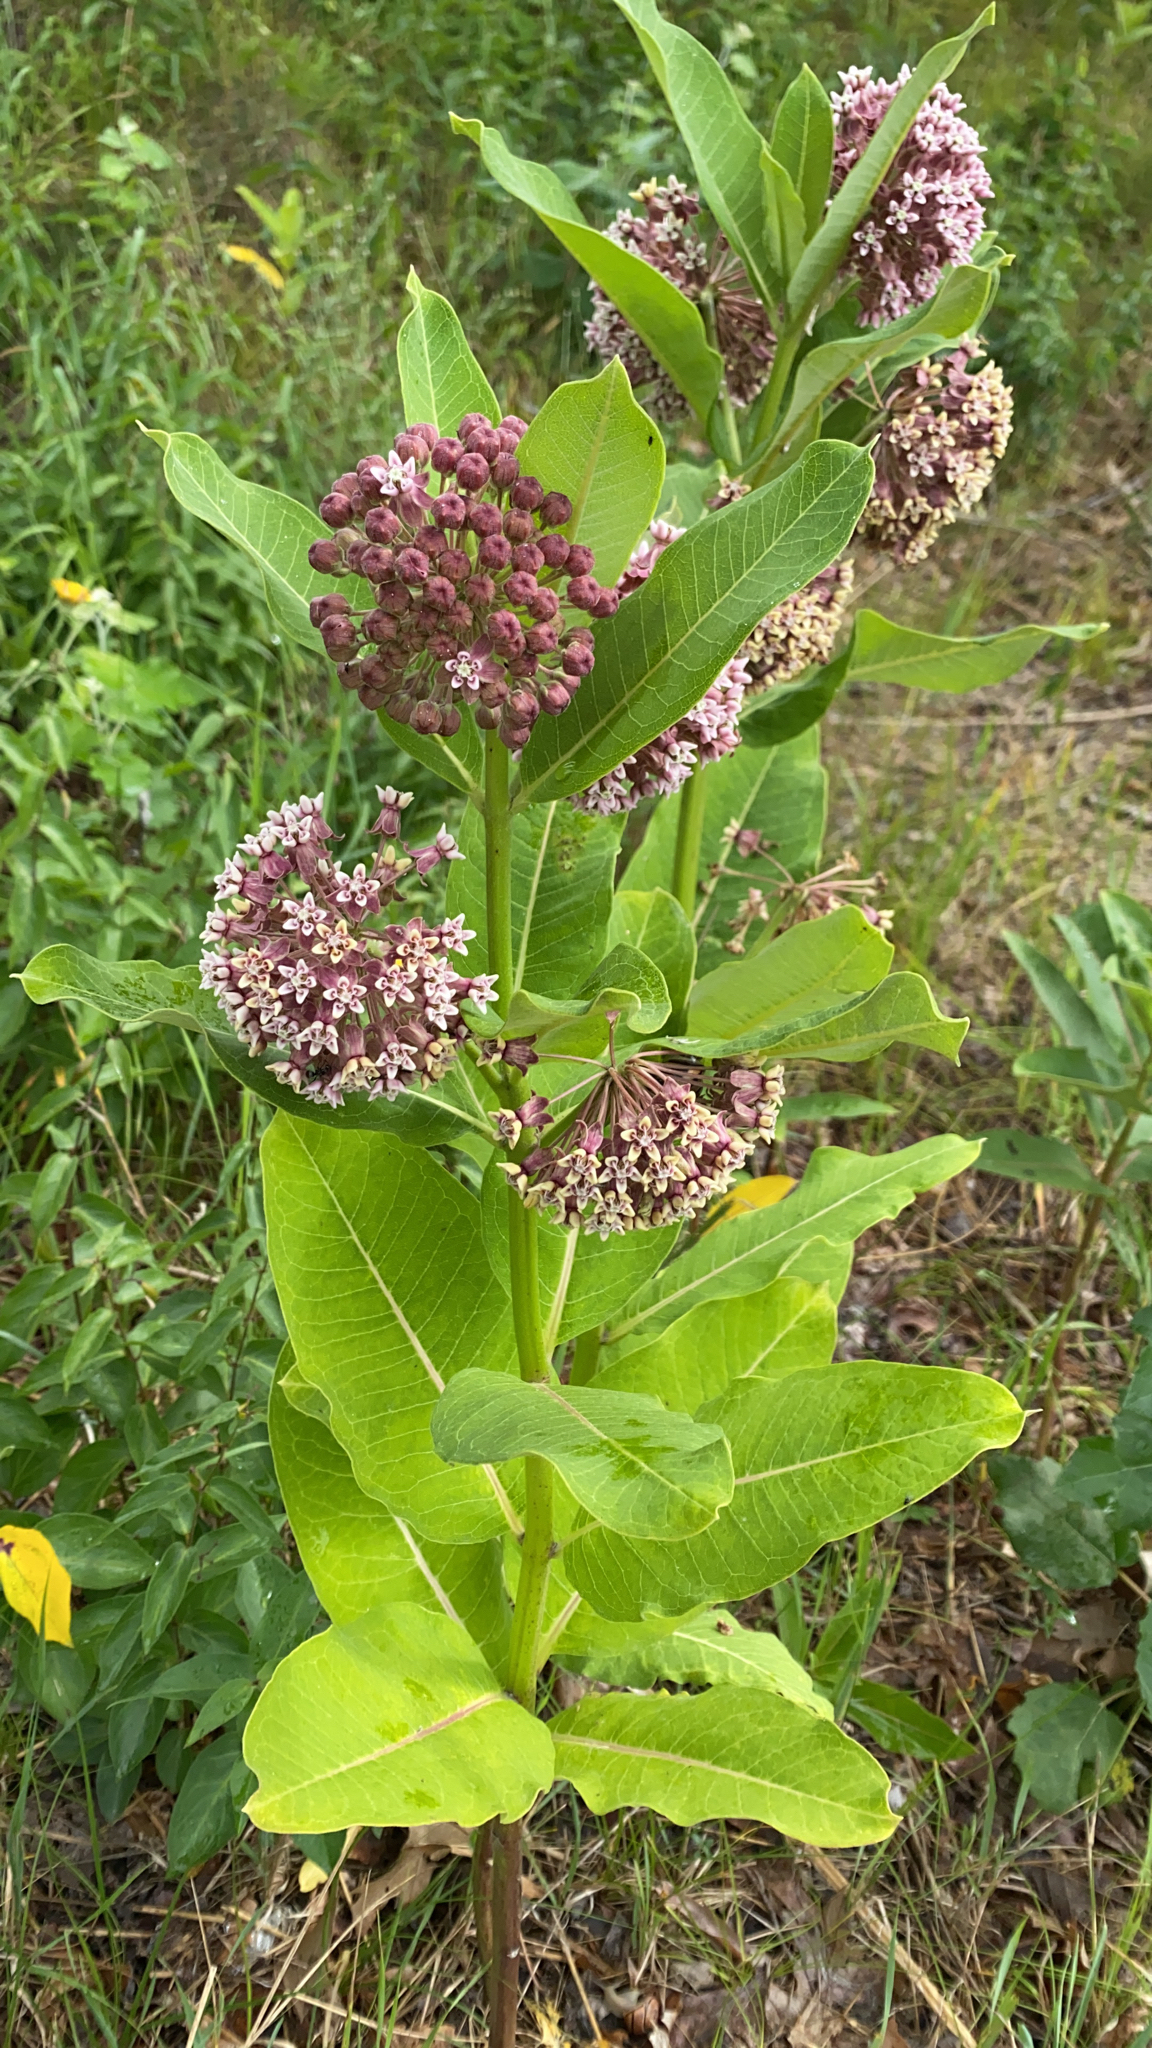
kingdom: Plantae
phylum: Tracheophyta
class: Magnoliopsida
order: Gentianales
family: Apocynaceae
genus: Asclepias
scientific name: Asclepias syriaca
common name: Common milkweed
